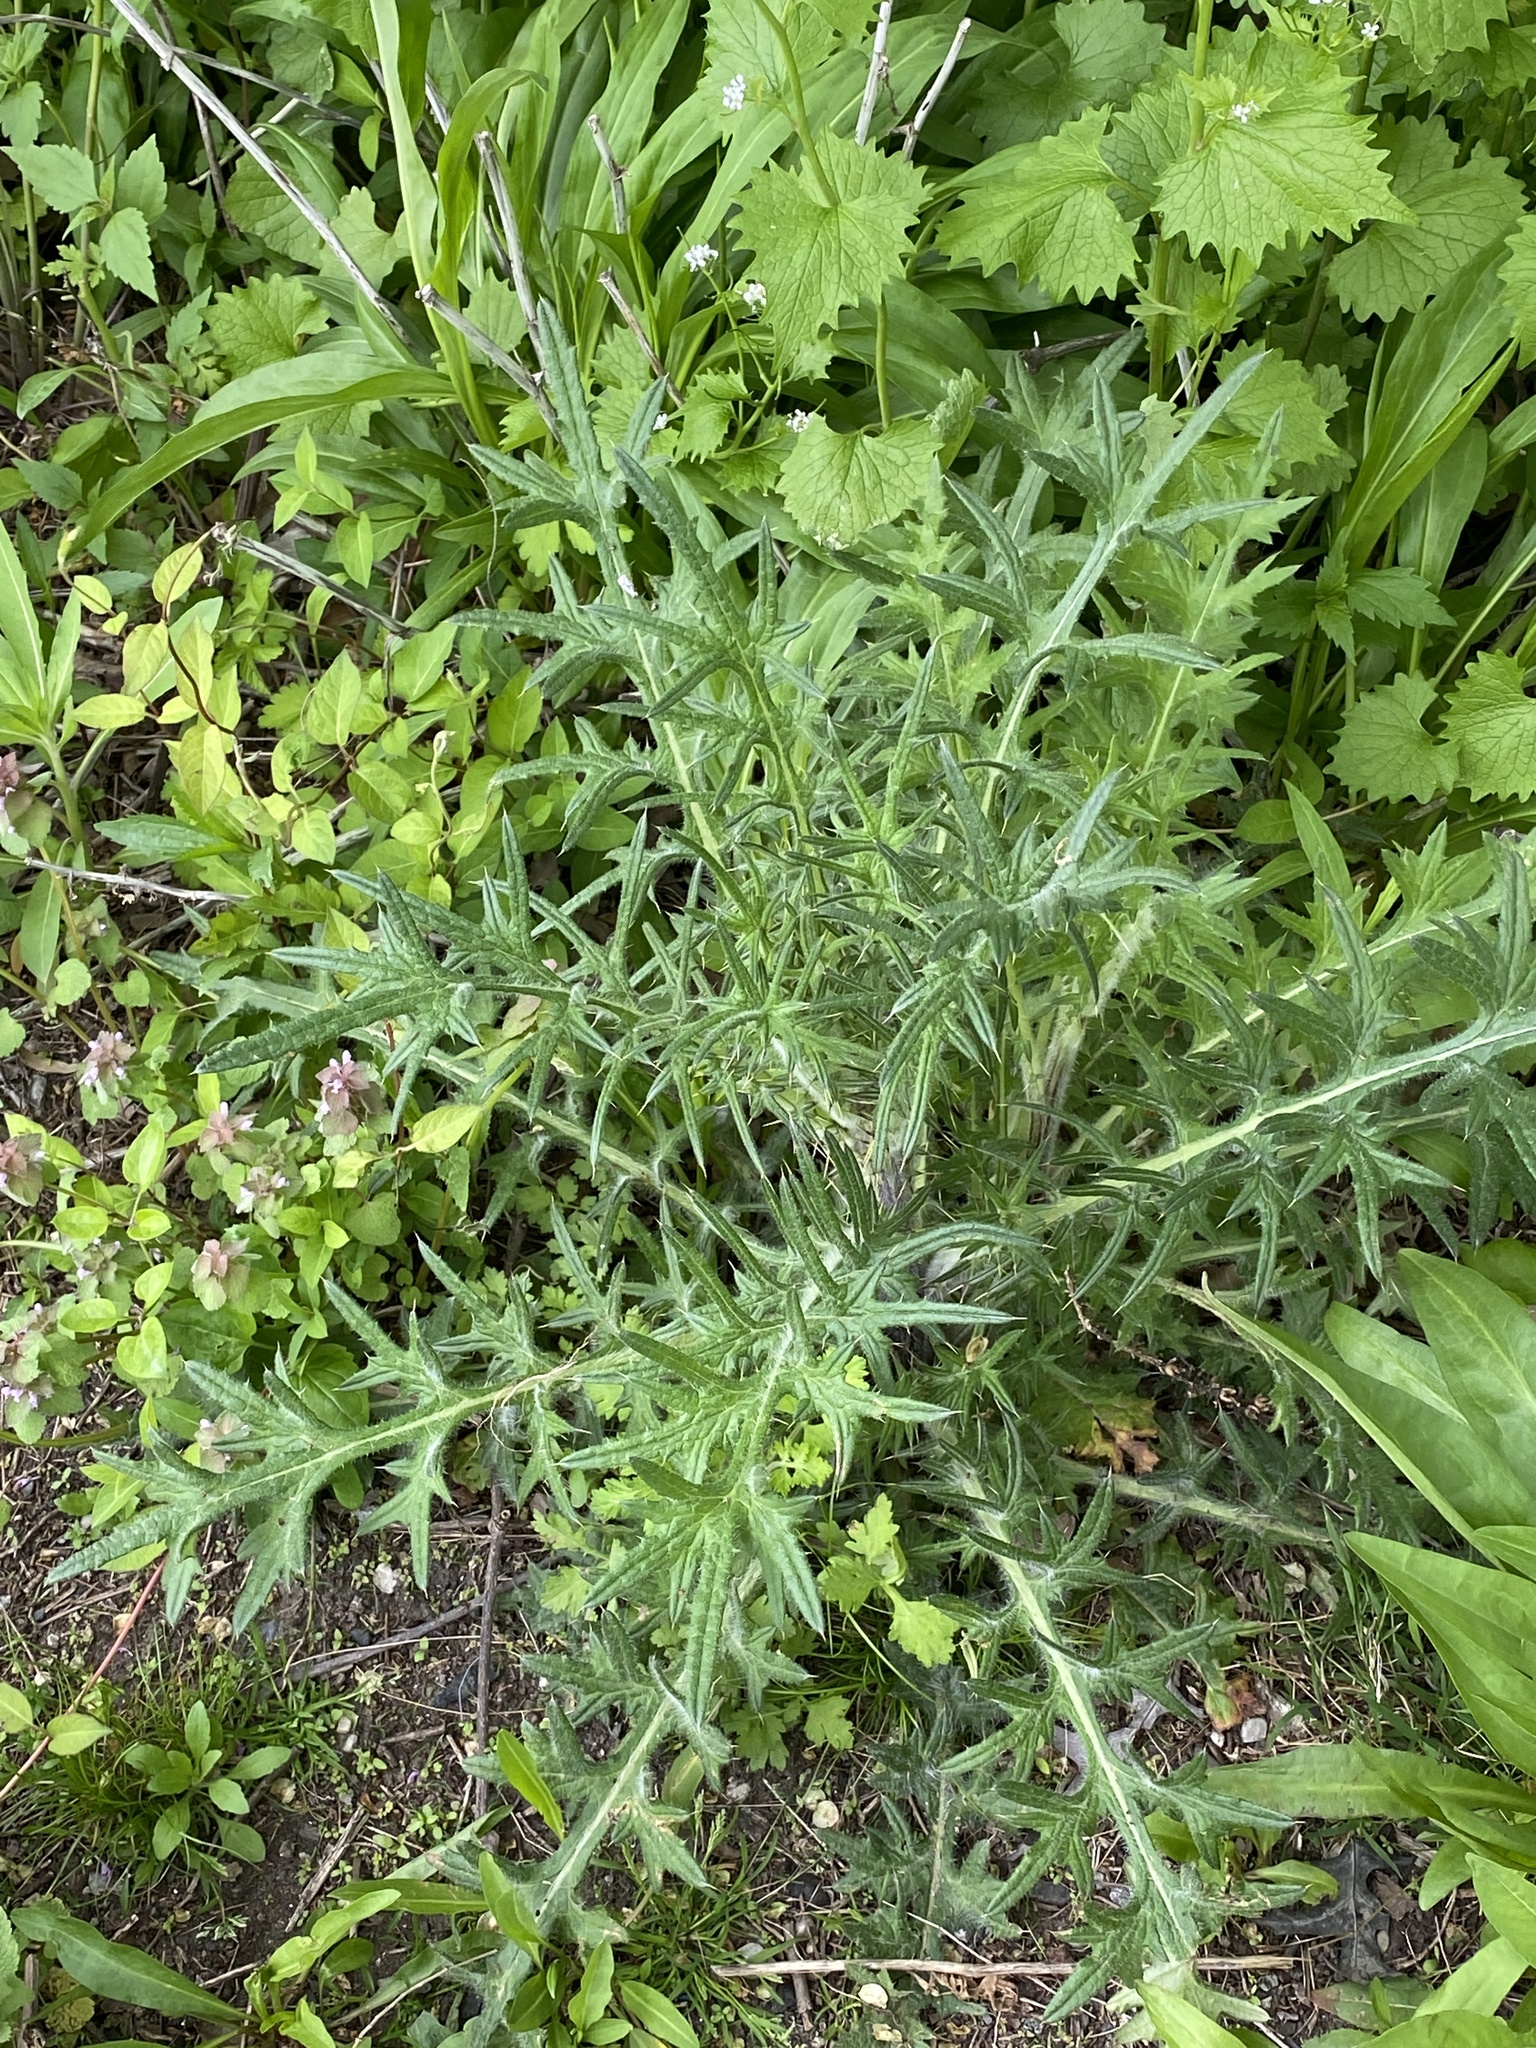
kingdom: Plantae
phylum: Tracheophyta
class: Magnoliopsida
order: Asterales
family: Asteraceae
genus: Cirsium
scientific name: Cirsium vulgare
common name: Bull thistle
